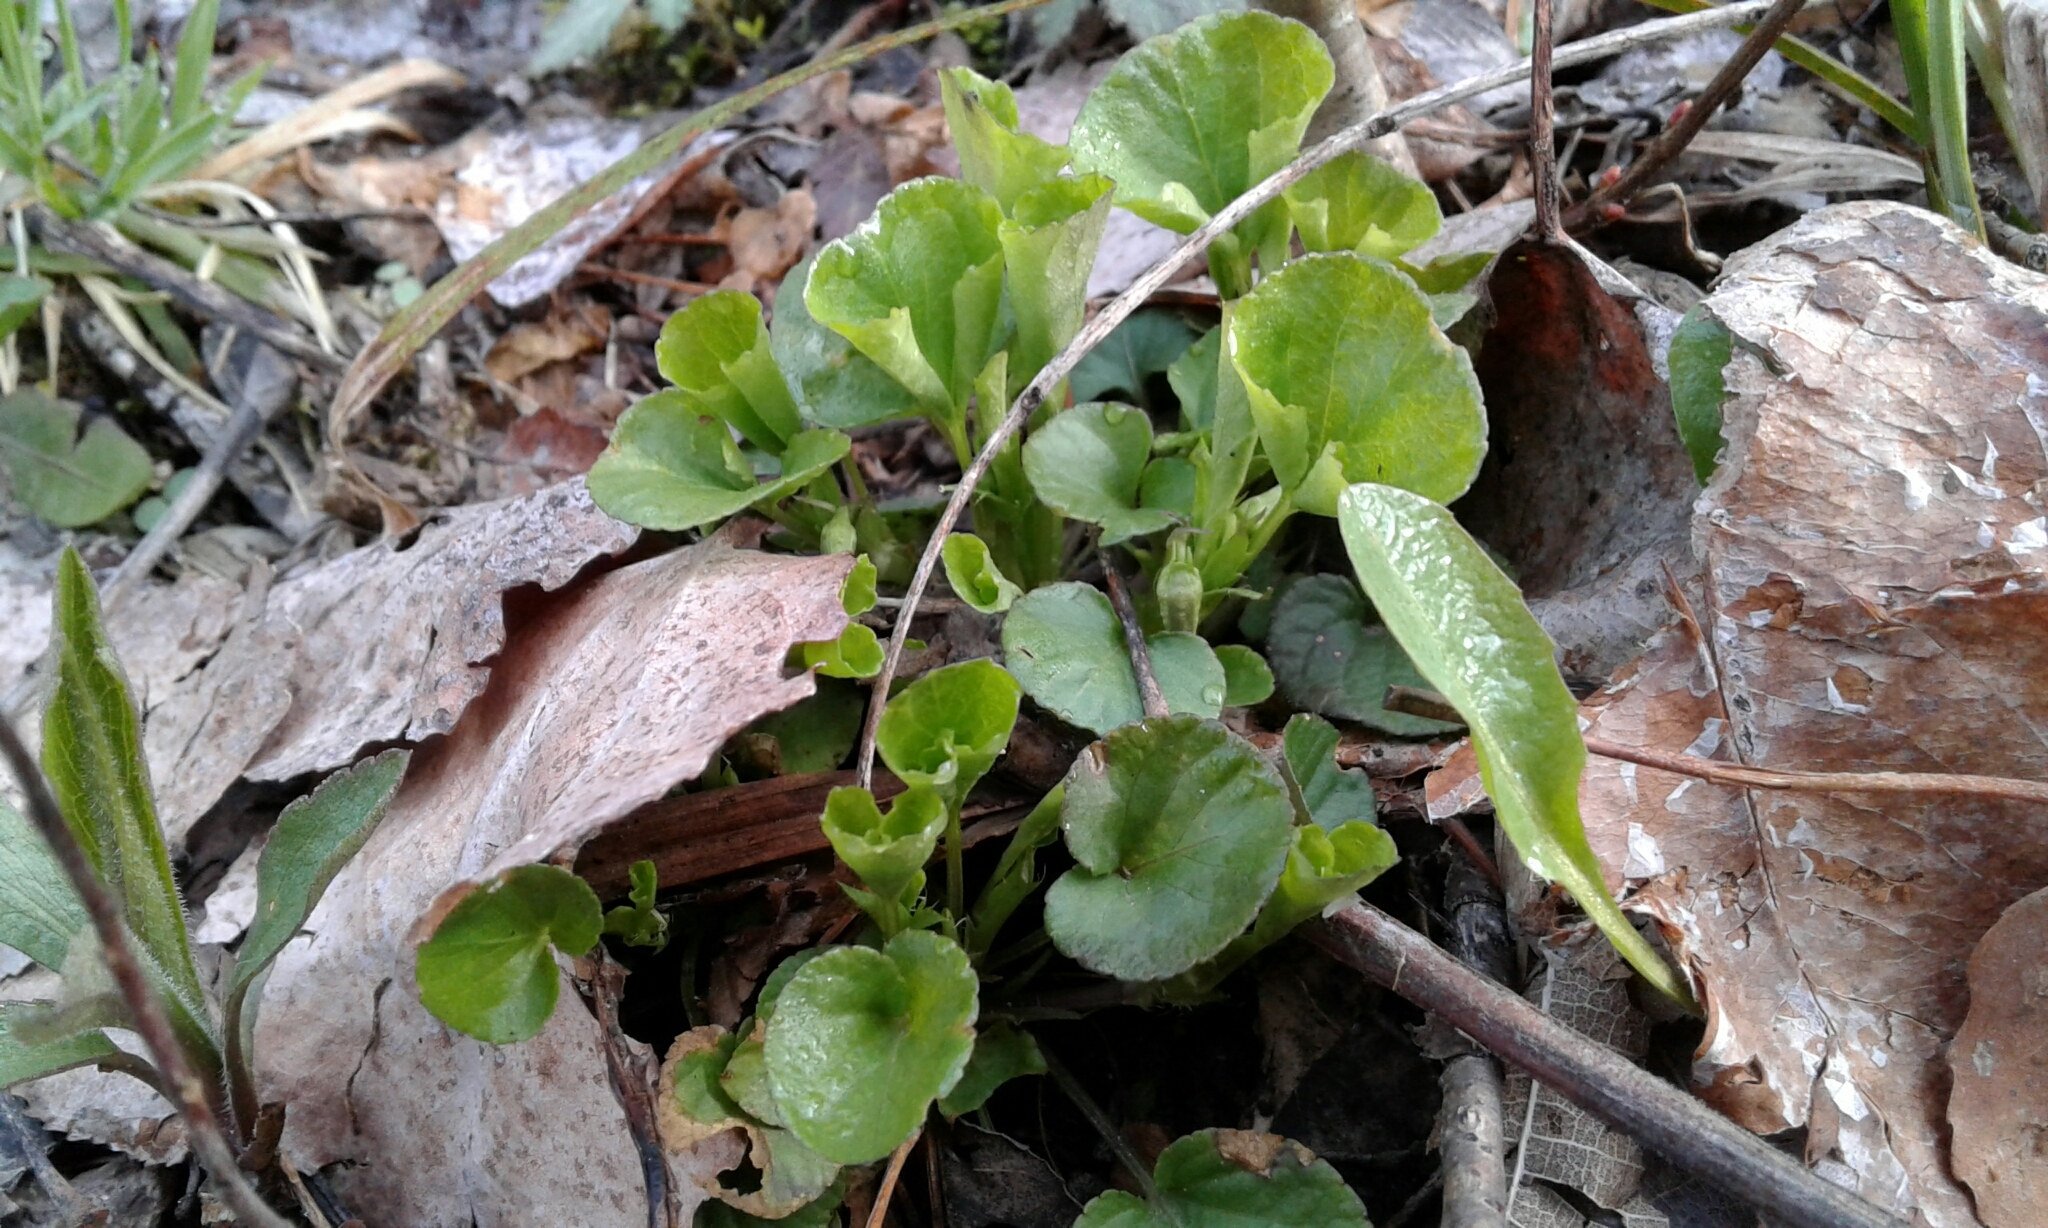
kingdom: Plantae
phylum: Tracheophyta
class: Magnoliopsida
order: Malpighiales
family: Violaceae
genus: Viola
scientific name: Viola
